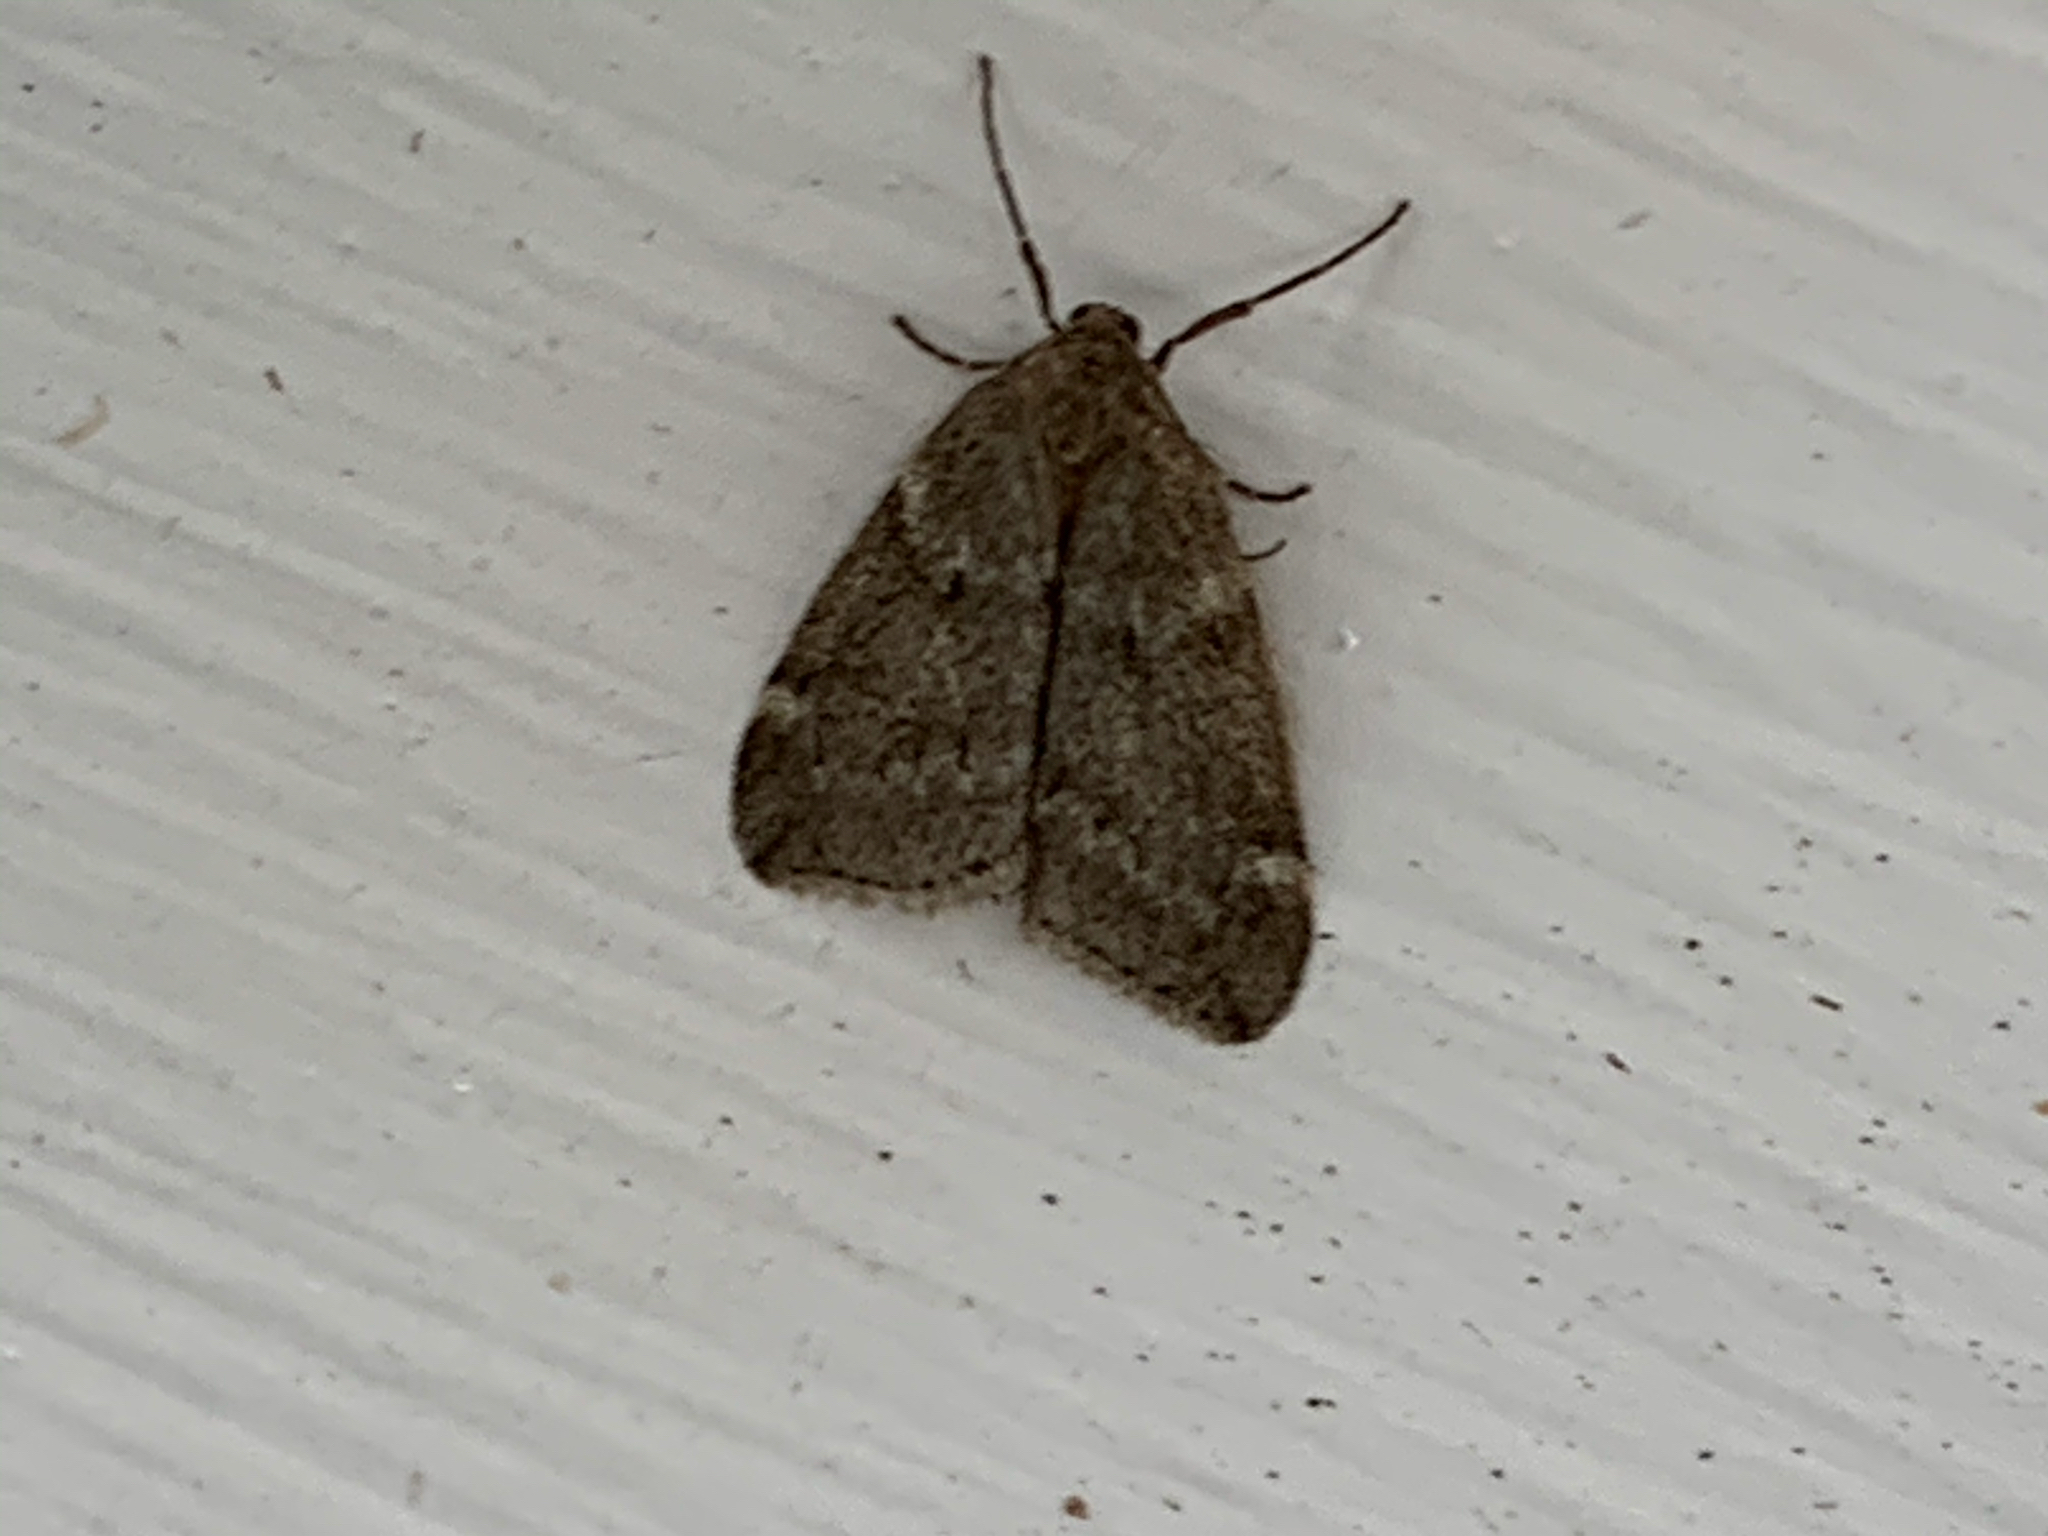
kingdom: Animalia
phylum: Arthropoda
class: Insecta
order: Lepidoptera
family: Geometridae
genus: Alsophila
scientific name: Alsophila pometaria
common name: Fall cankerworm
